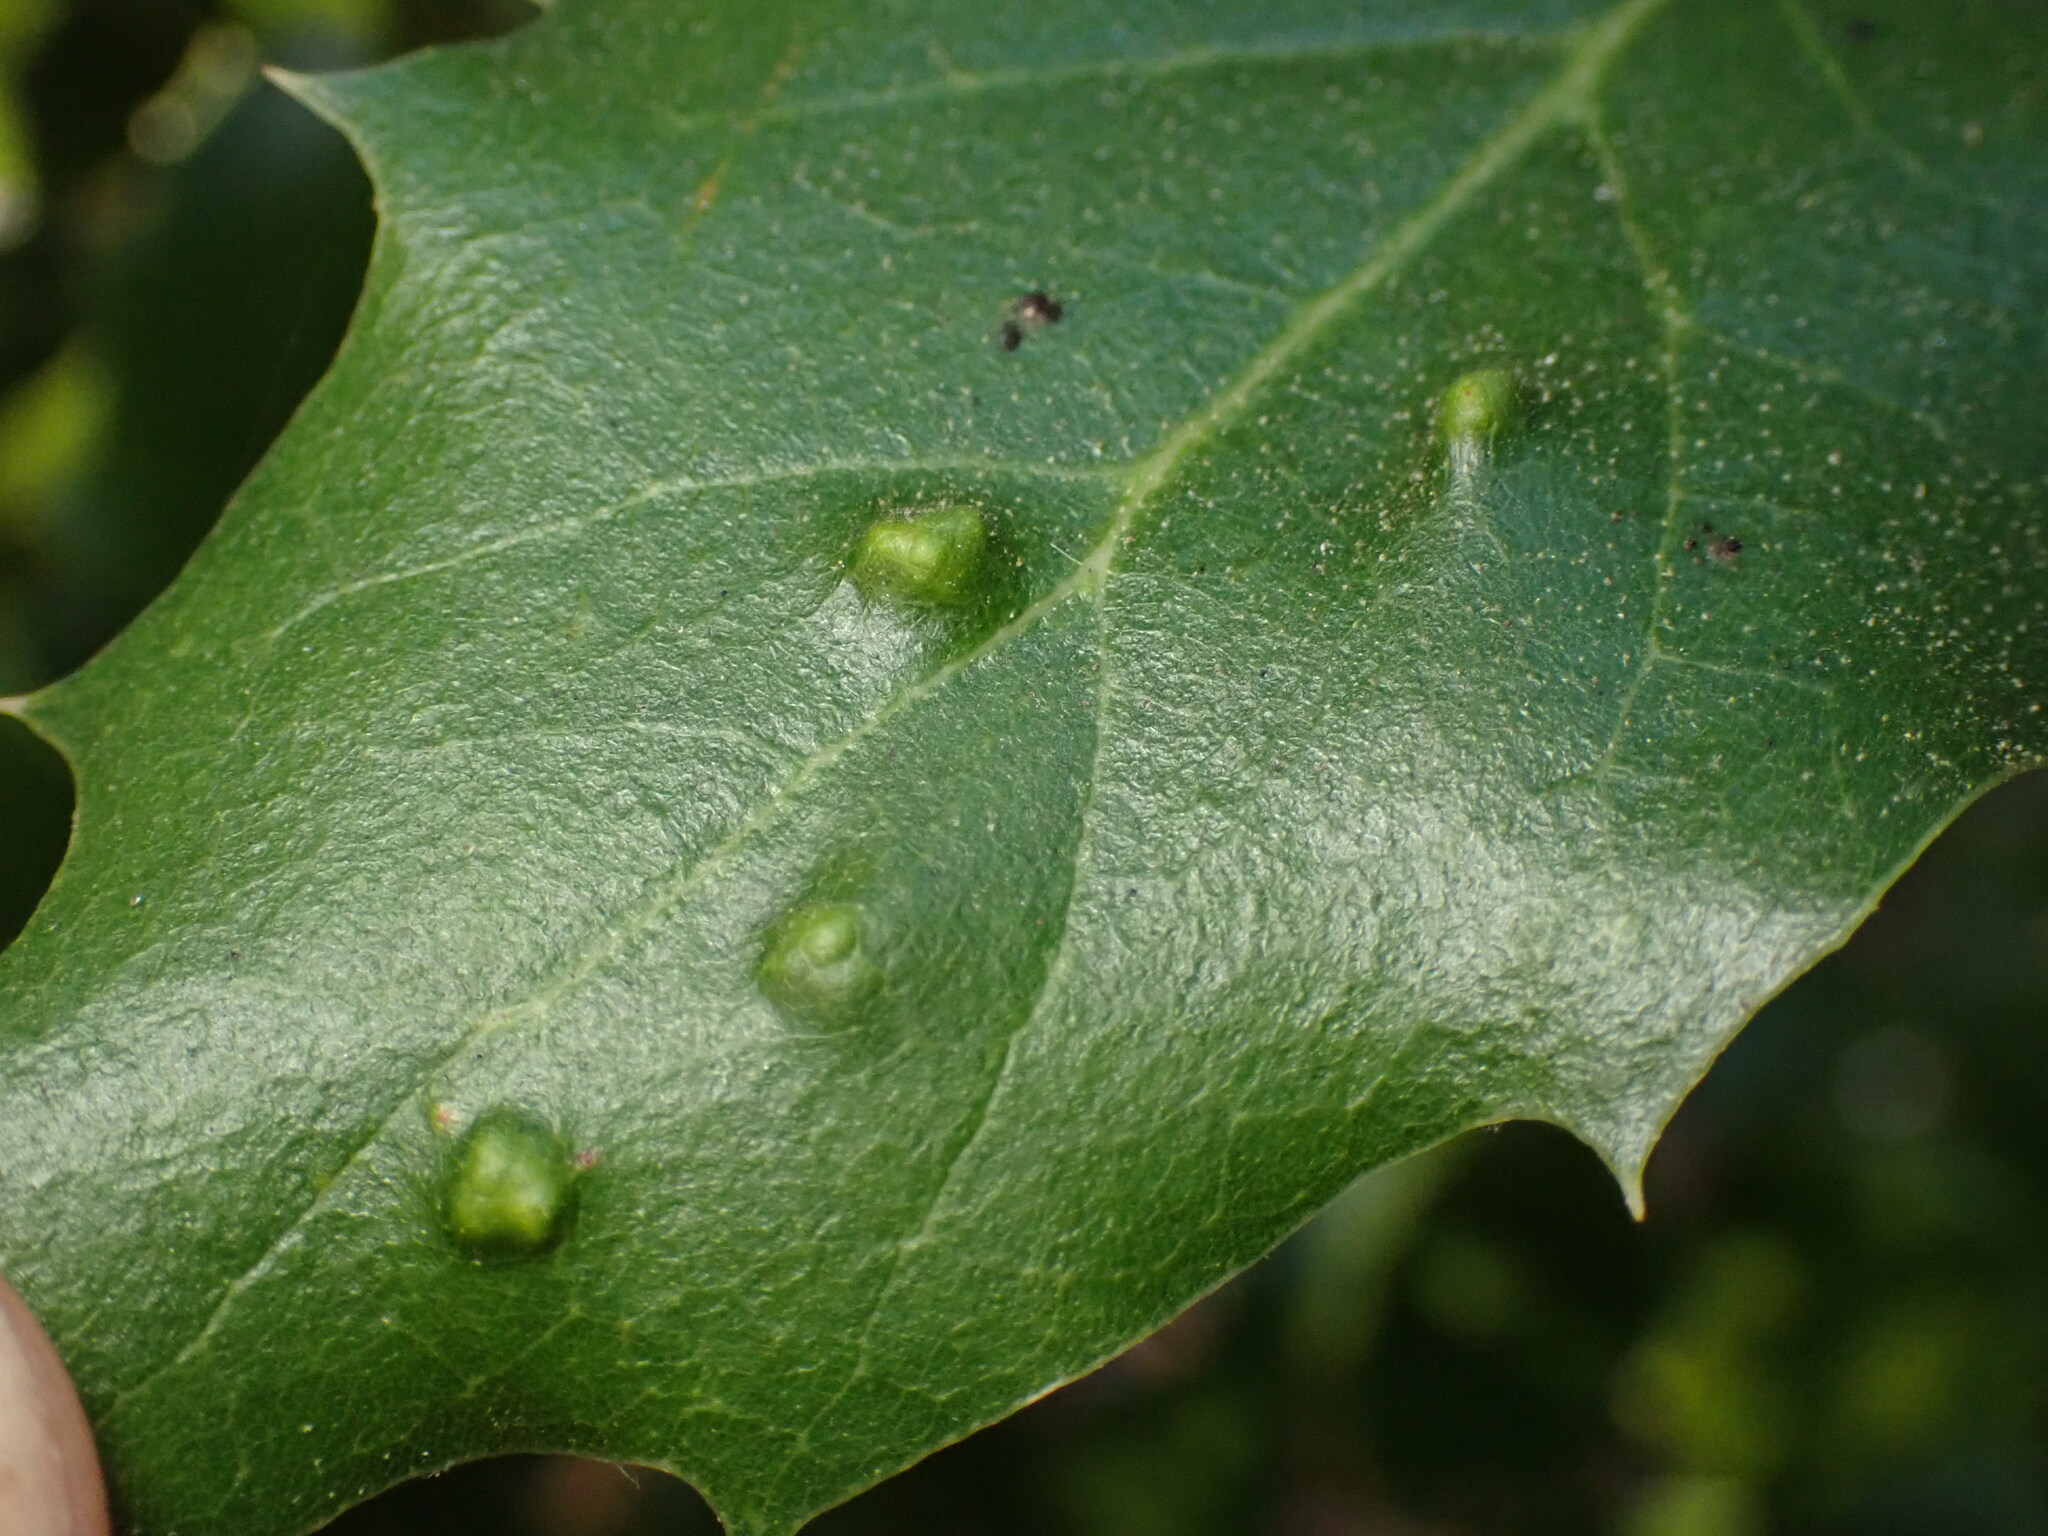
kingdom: Animalia
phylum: Arthropoda
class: Arachnida
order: Trombidiformes
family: Eriophyidae
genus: Aceria
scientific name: Aceria
